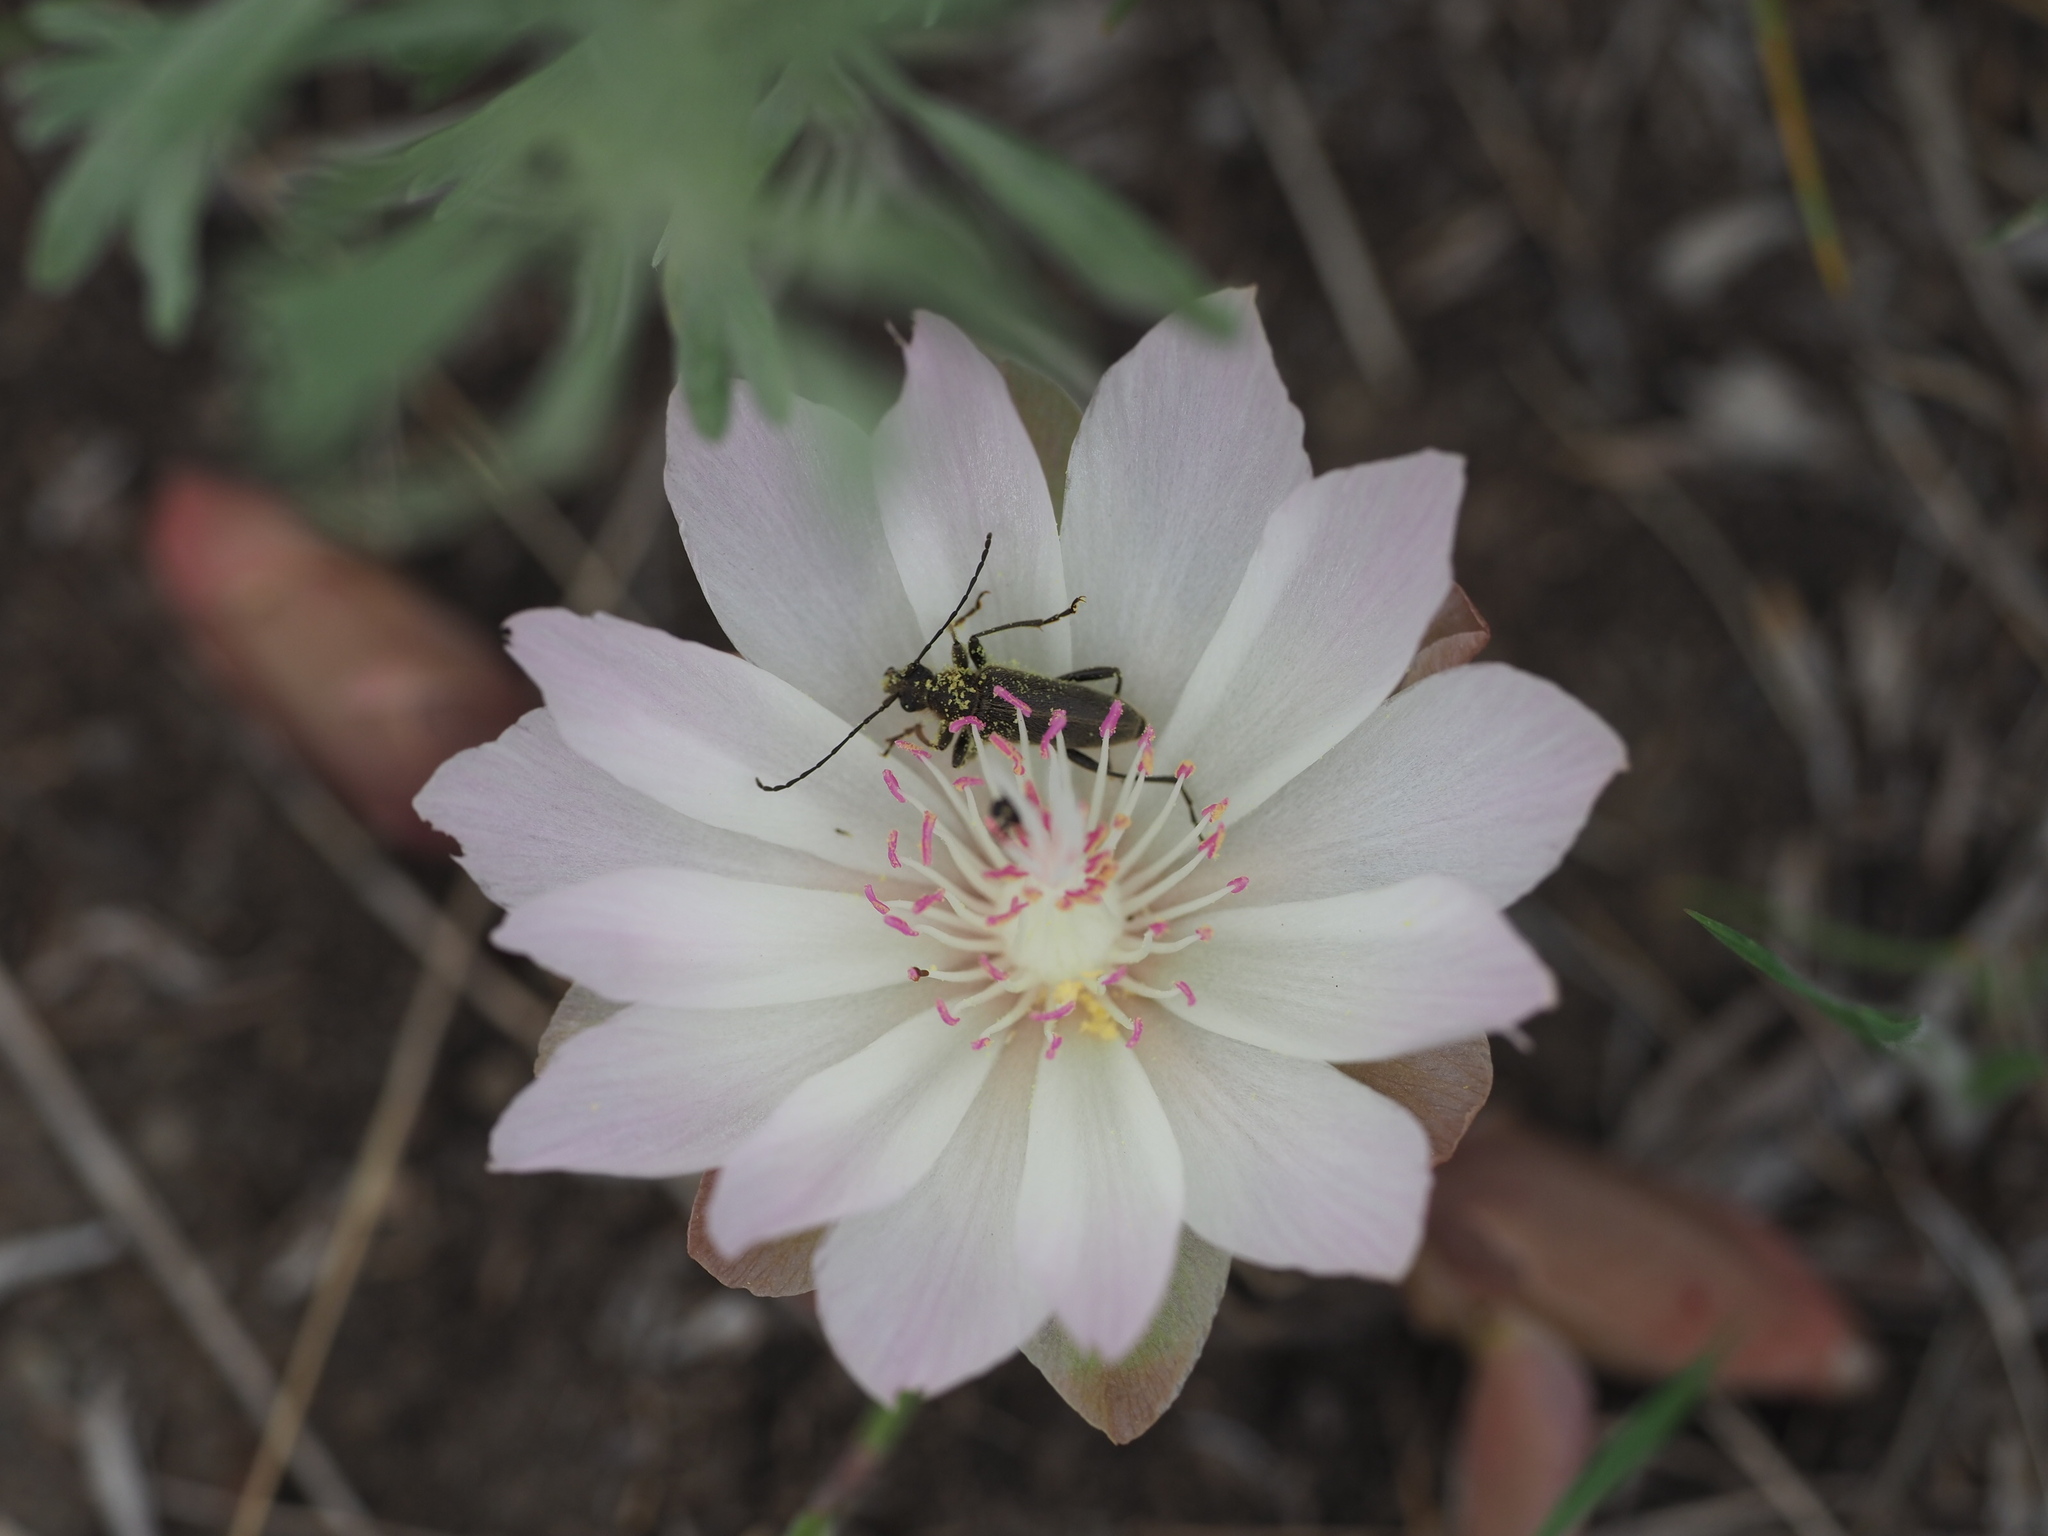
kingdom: Plantae
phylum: Tracheophyta
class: Magnoliopsida
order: Caryophyllales
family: Montiaceae
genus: Lewisia
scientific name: Lewisia rediviva
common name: Bitter-root
